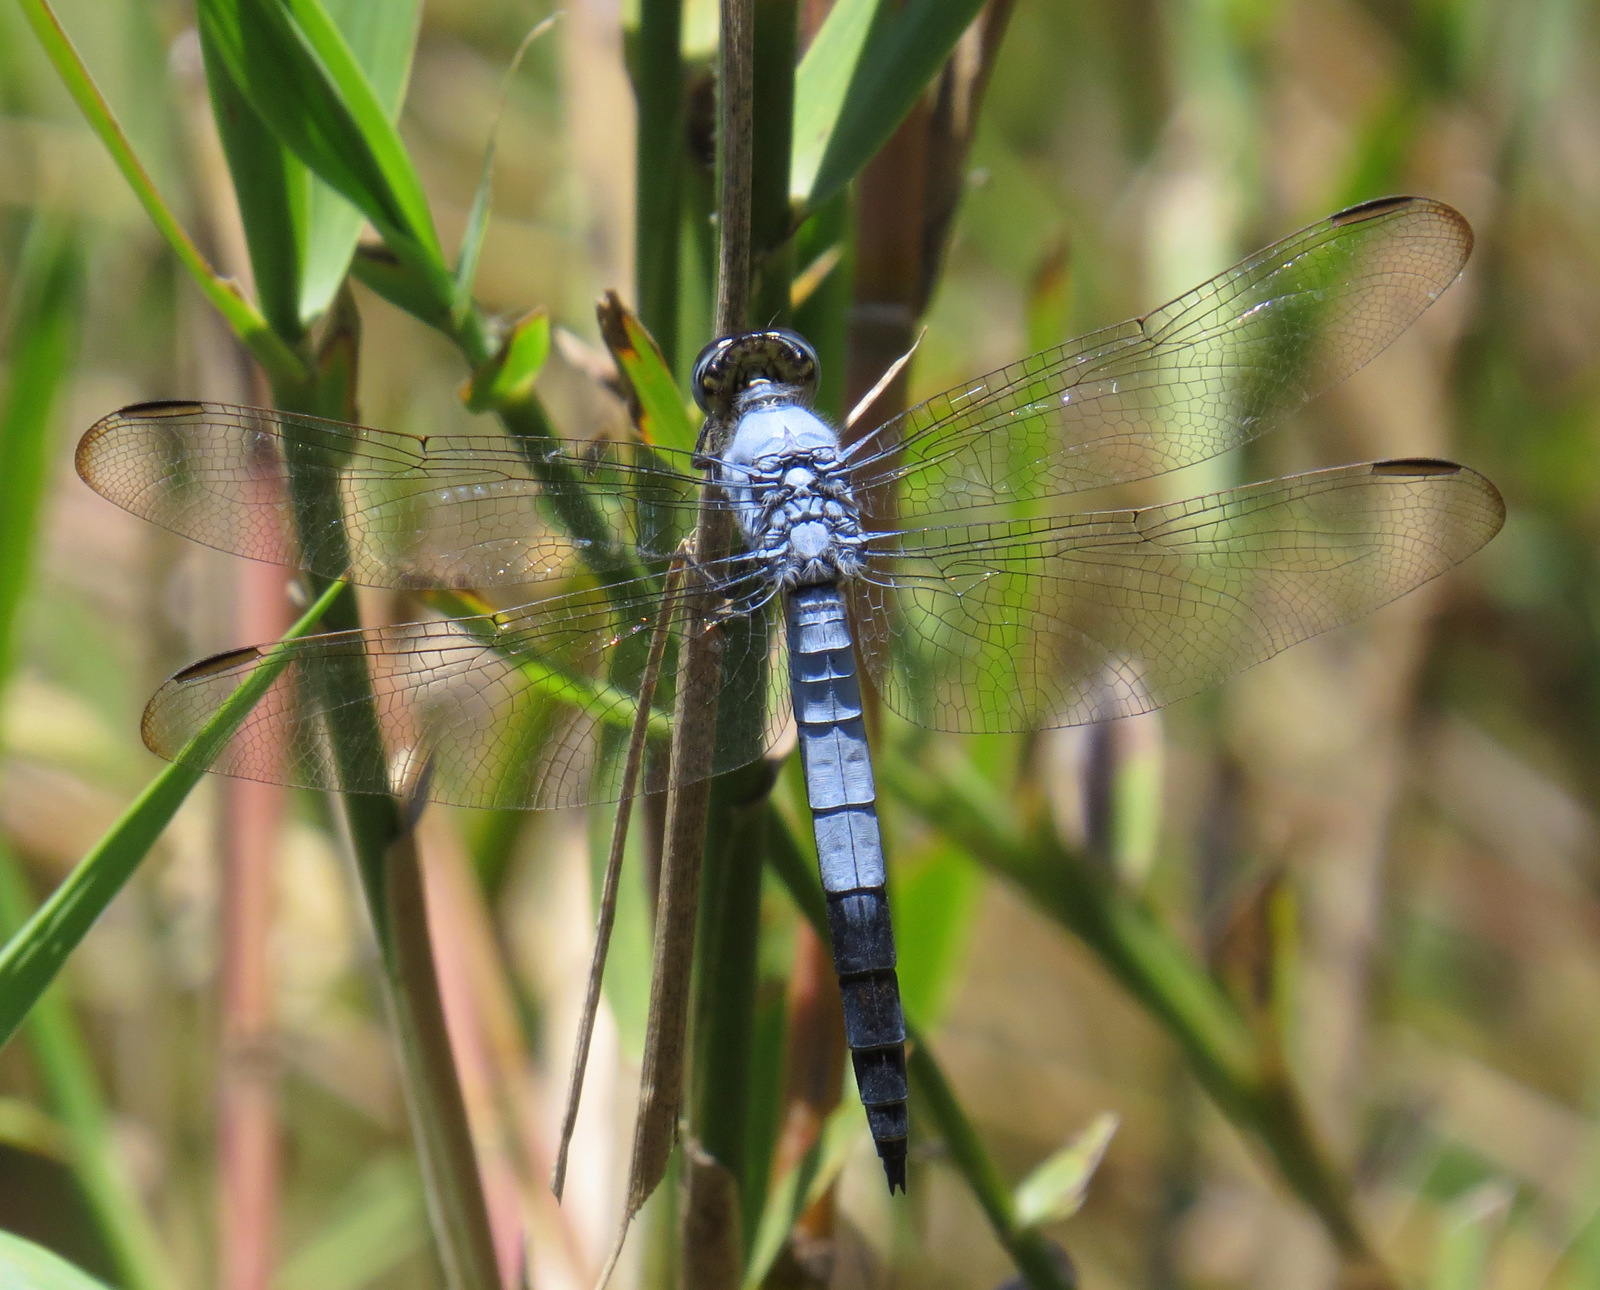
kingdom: Animalia
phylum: Arthropoda
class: Insecta
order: Odonata
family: Libellulidae
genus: Nesciothemis
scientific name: Nesciothemis farinosa
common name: Eastern blacktail
